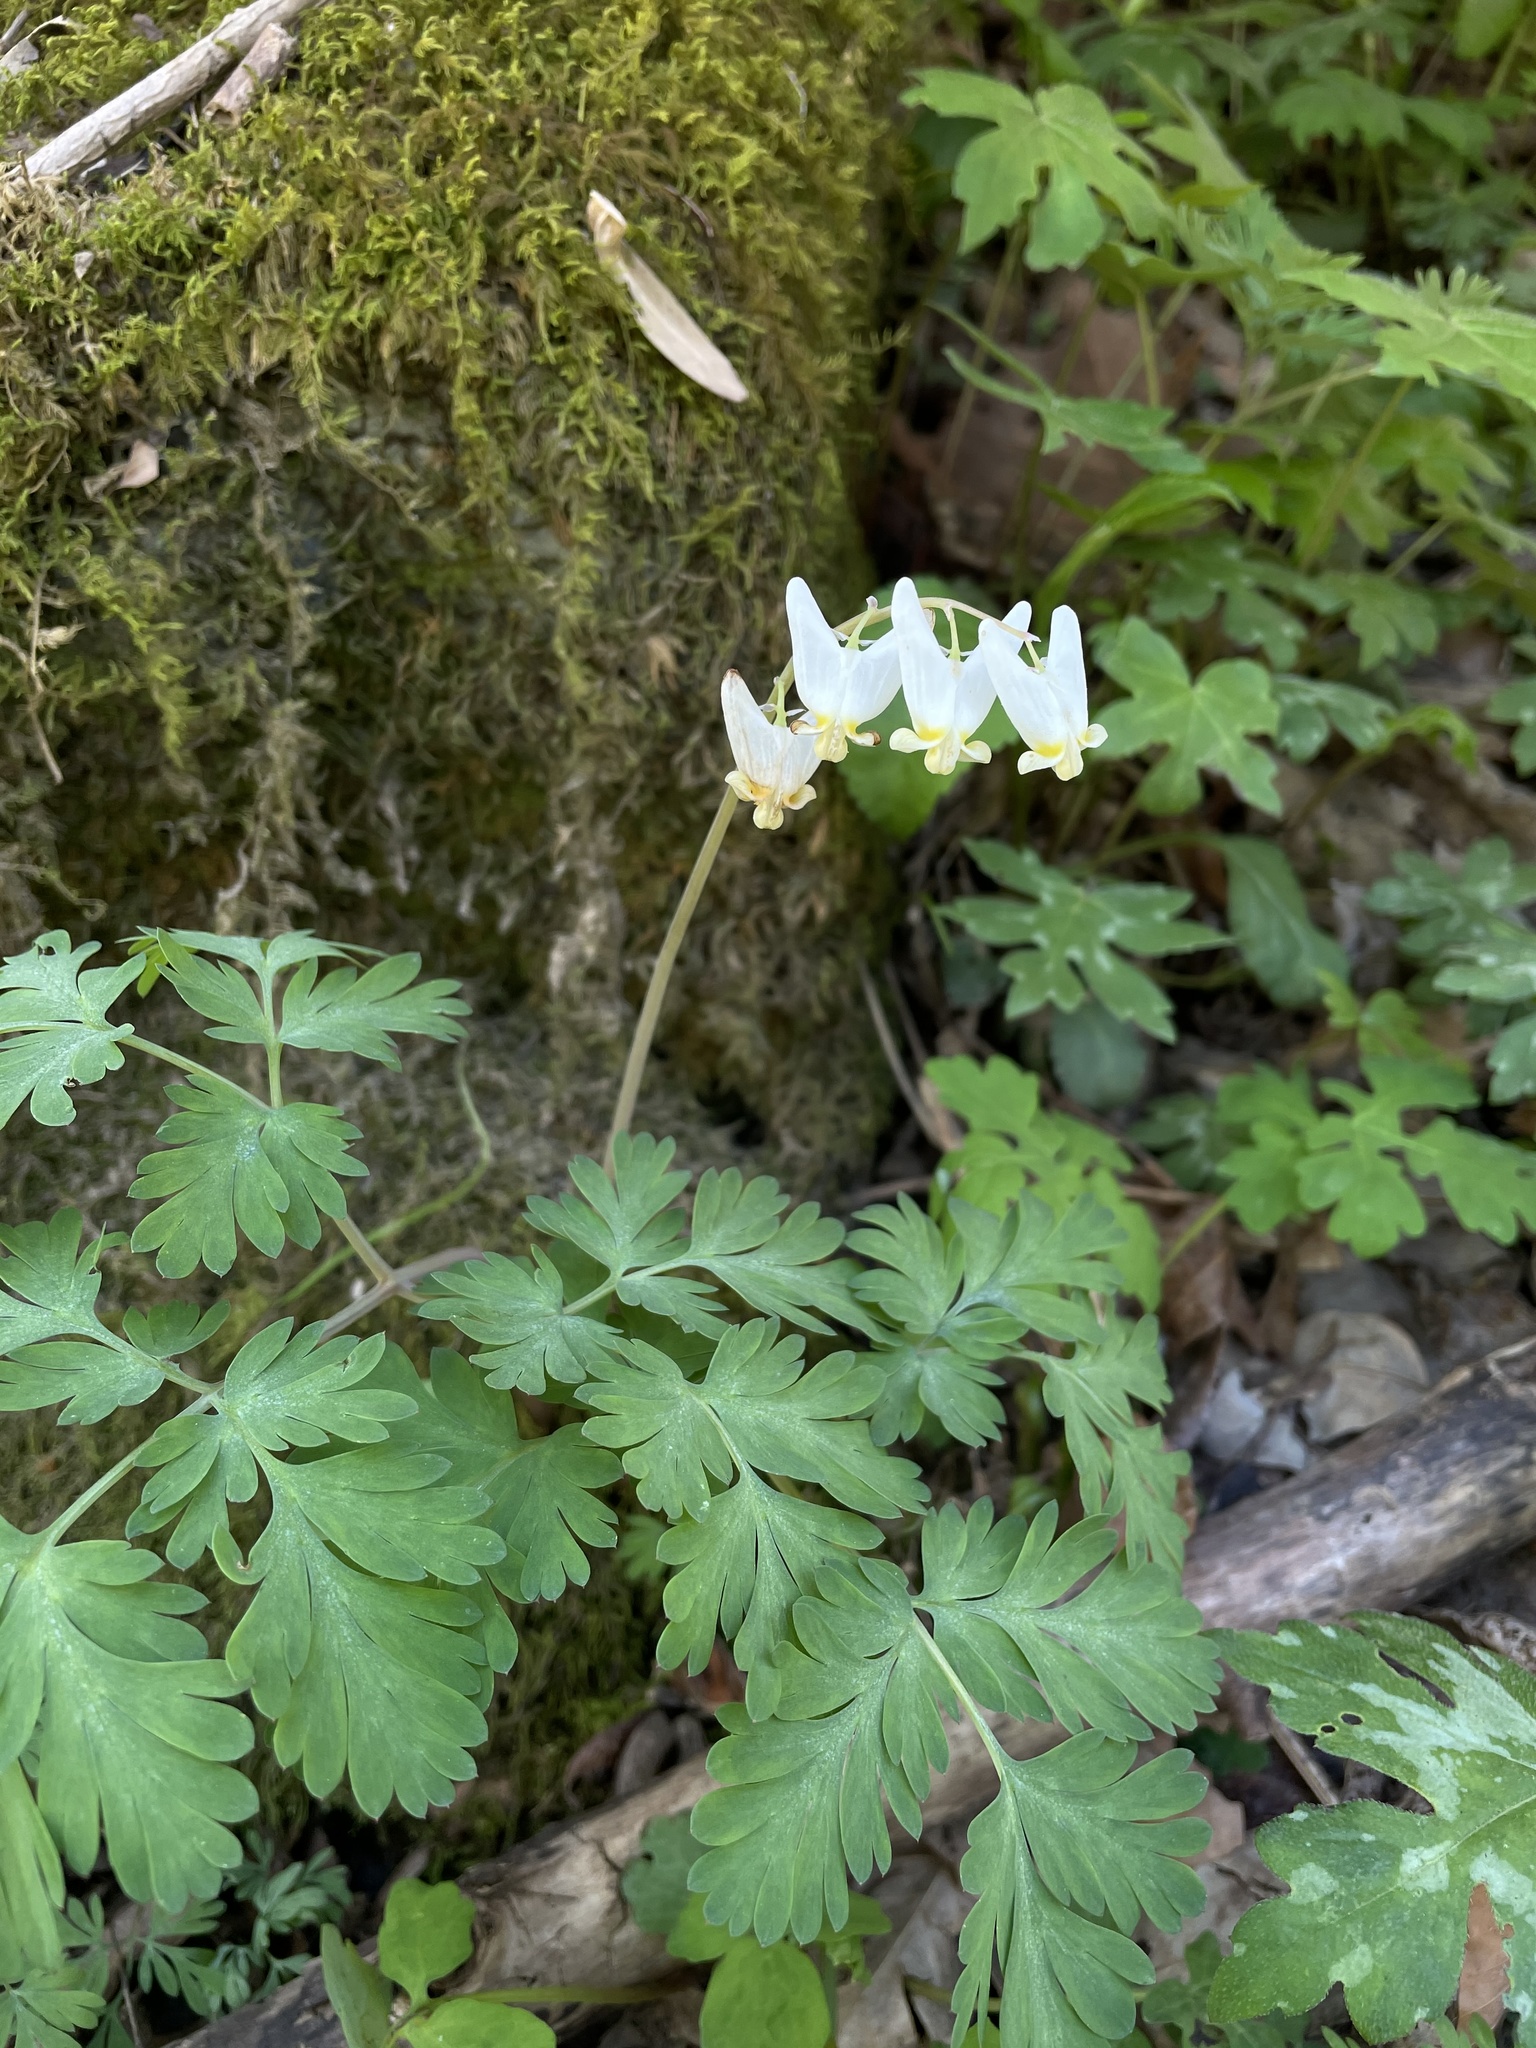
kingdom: Plantae
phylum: Tracheophyta
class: Magnoliopsida
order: Ranunculales
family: Papaveraceae
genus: Dicentra
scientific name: Dicentra cucullaria
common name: Dutchman's breeches
